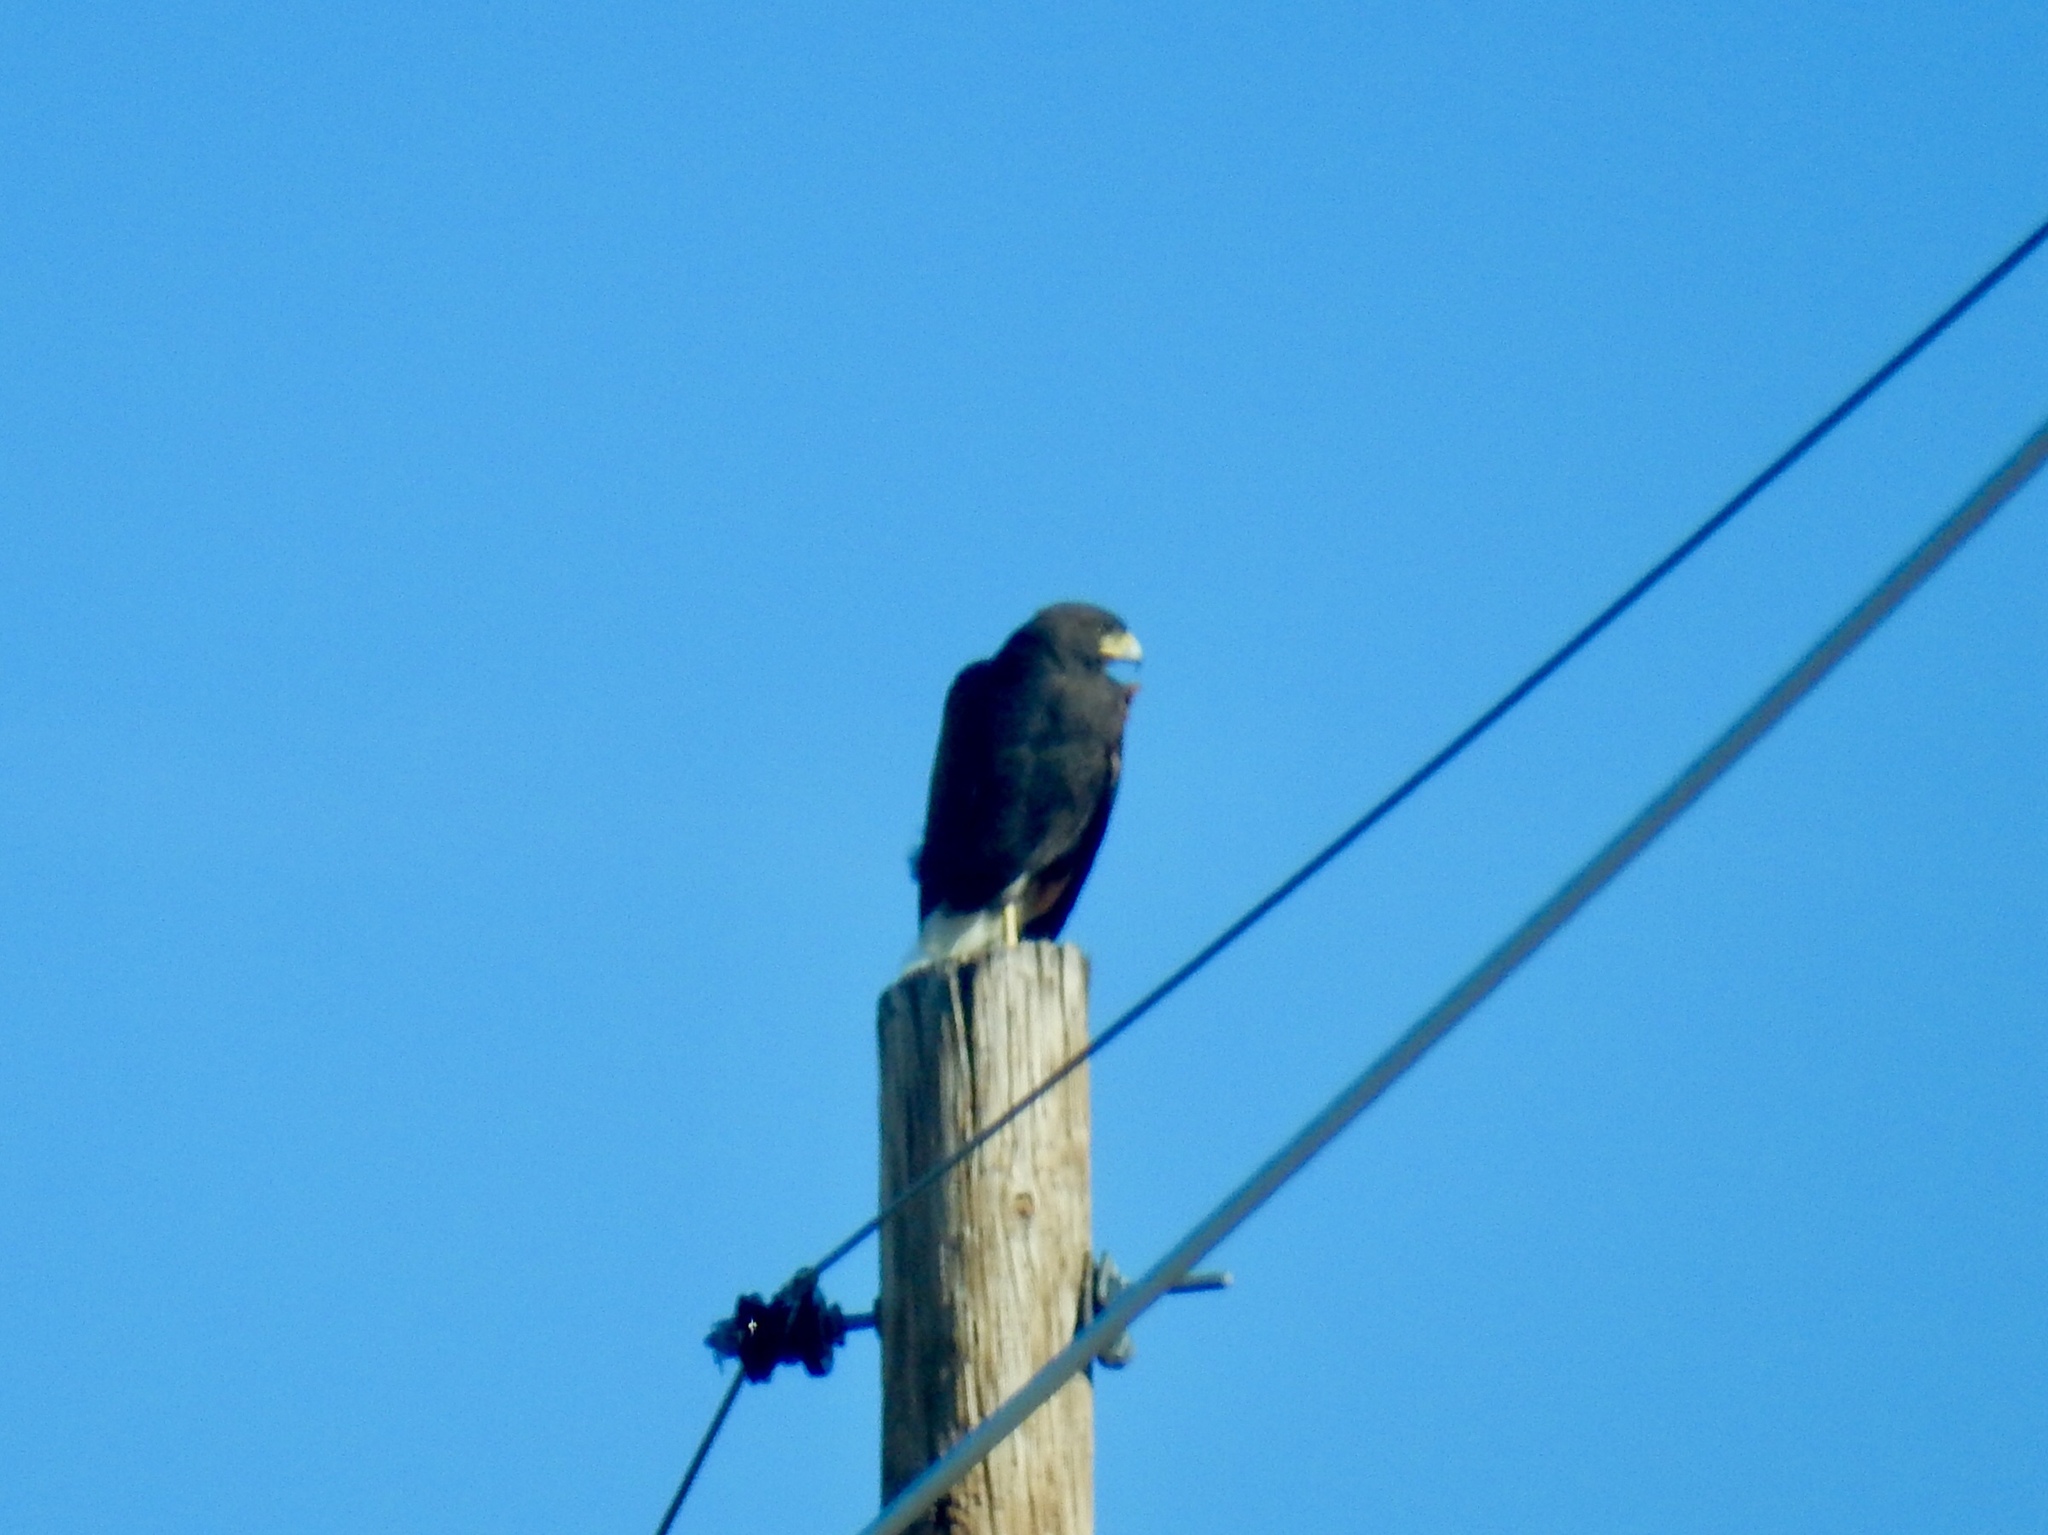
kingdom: Animalia
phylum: Chordata
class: Aves
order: Accipitriformes
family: Accipitridae
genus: Parabuteo
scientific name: Parabuteo unicinctus
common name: Harris's hawk
